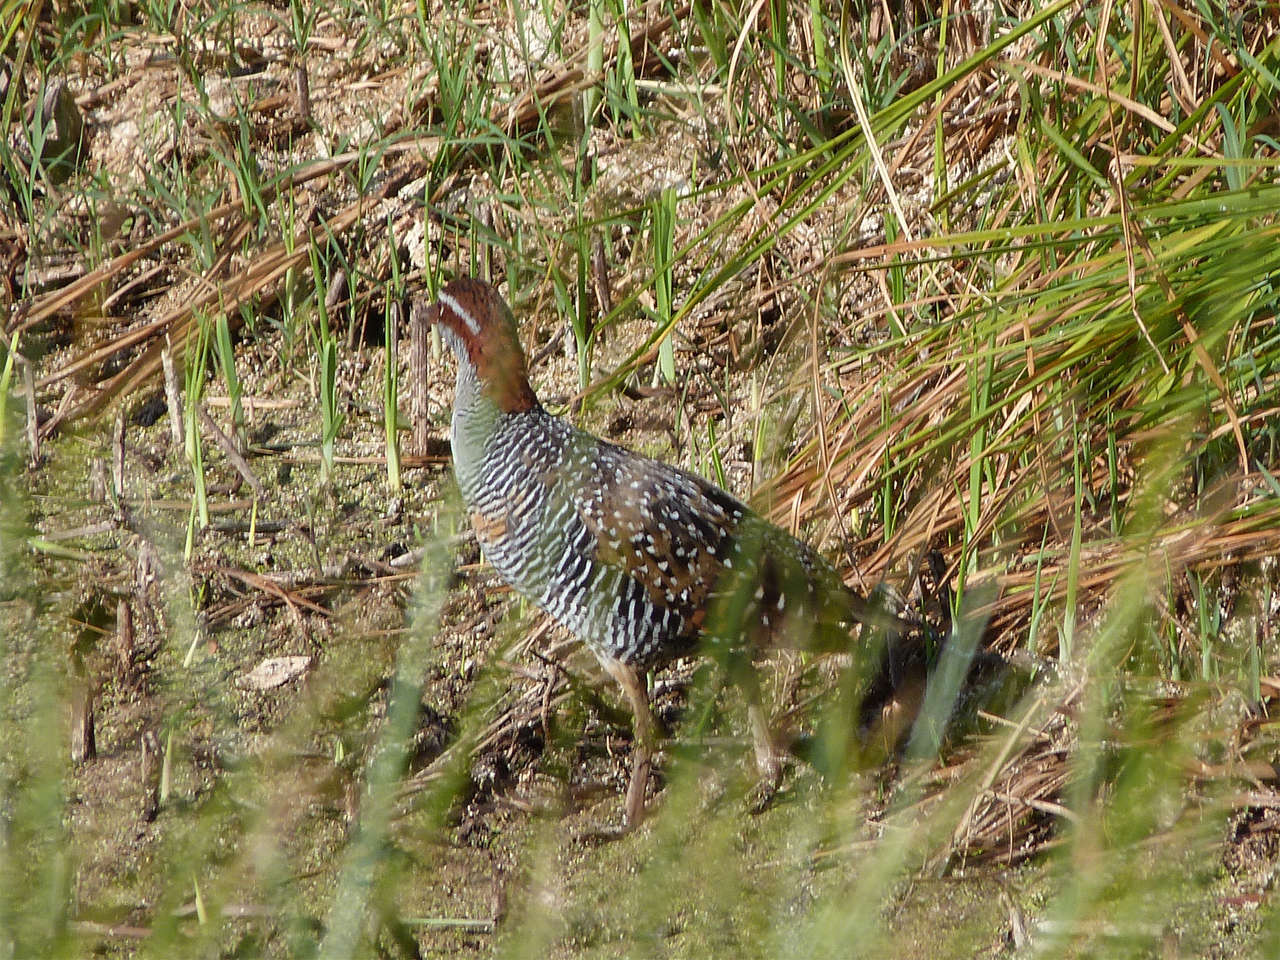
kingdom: Animalia
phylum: Chordata
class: Aves
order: Gruiformes
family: Rallidae
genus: Gallirallus
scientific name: Gallirallus philippensis
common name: Buff-banded rail
